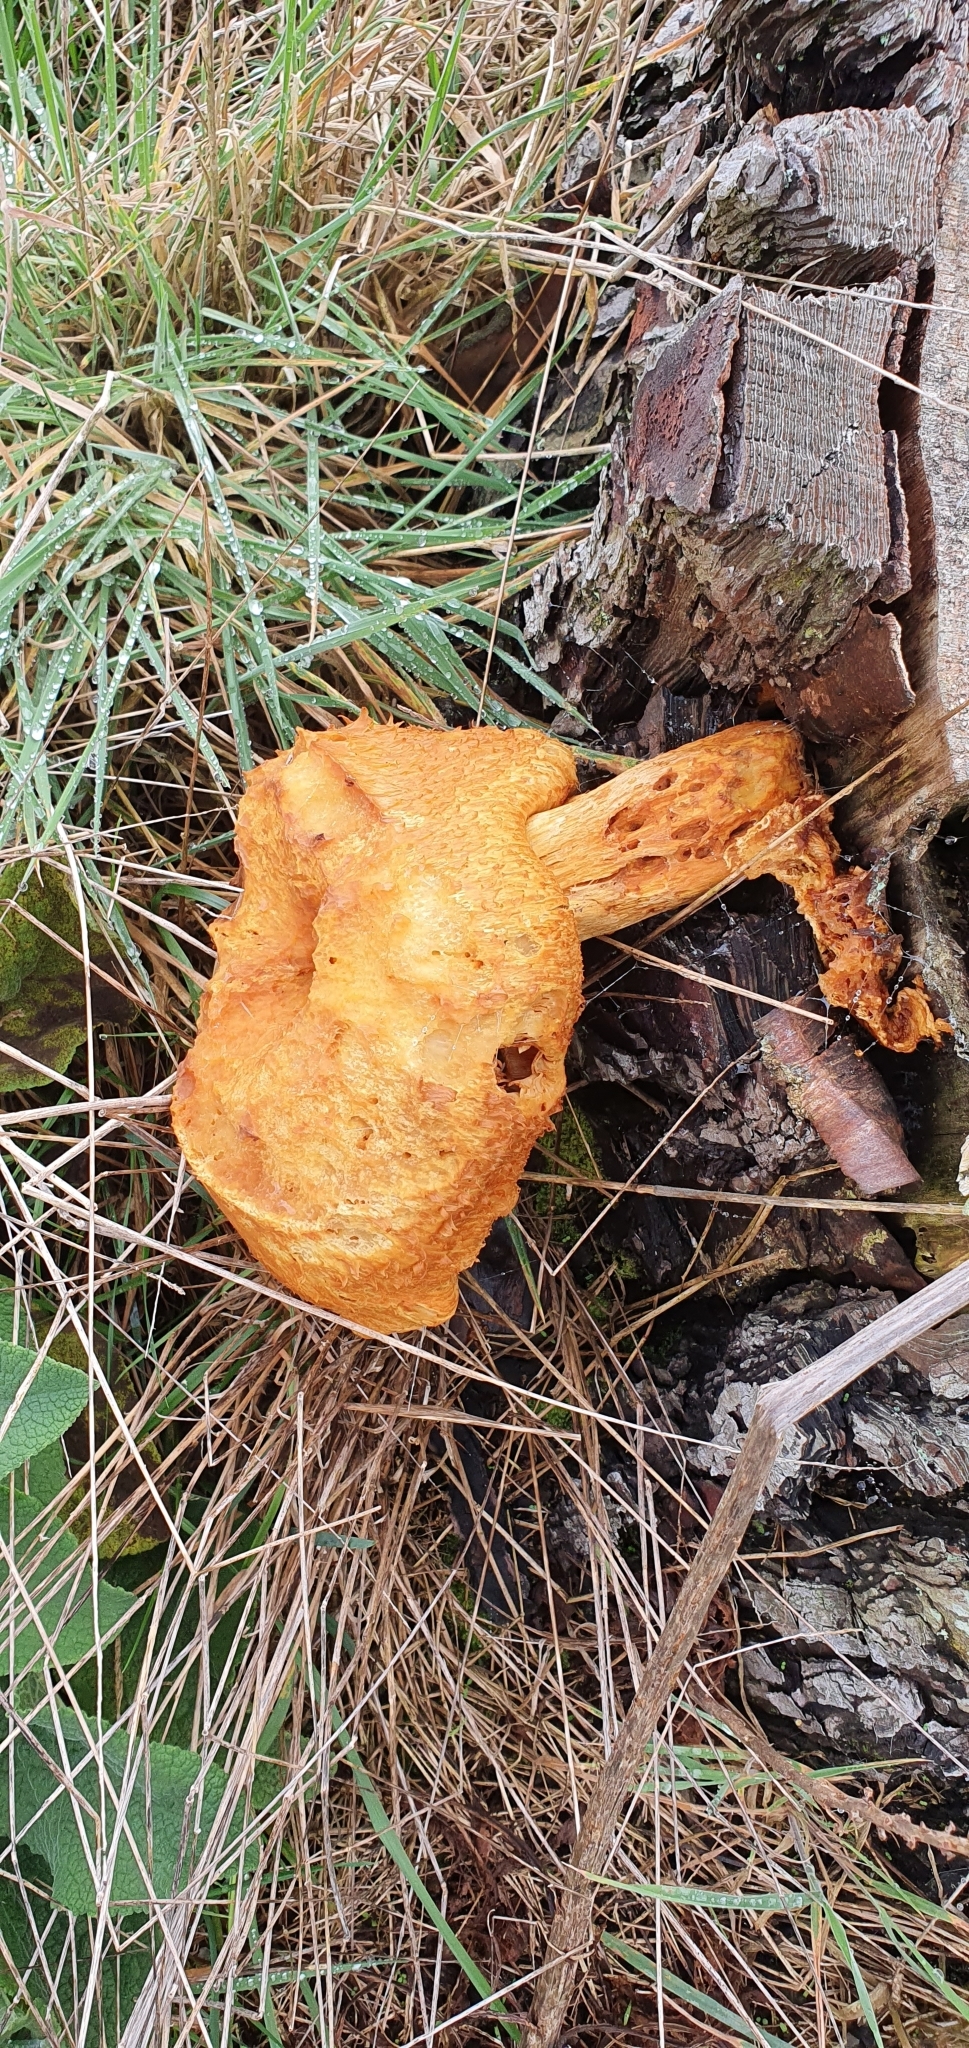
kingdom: Fungi
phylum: Basidiomycota
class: Agaricomycetes
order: Agaricales
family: Hymenogastraceae
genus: Gymnopilus
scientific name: Gymnopilus junonius
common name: Spectacular rustgill
